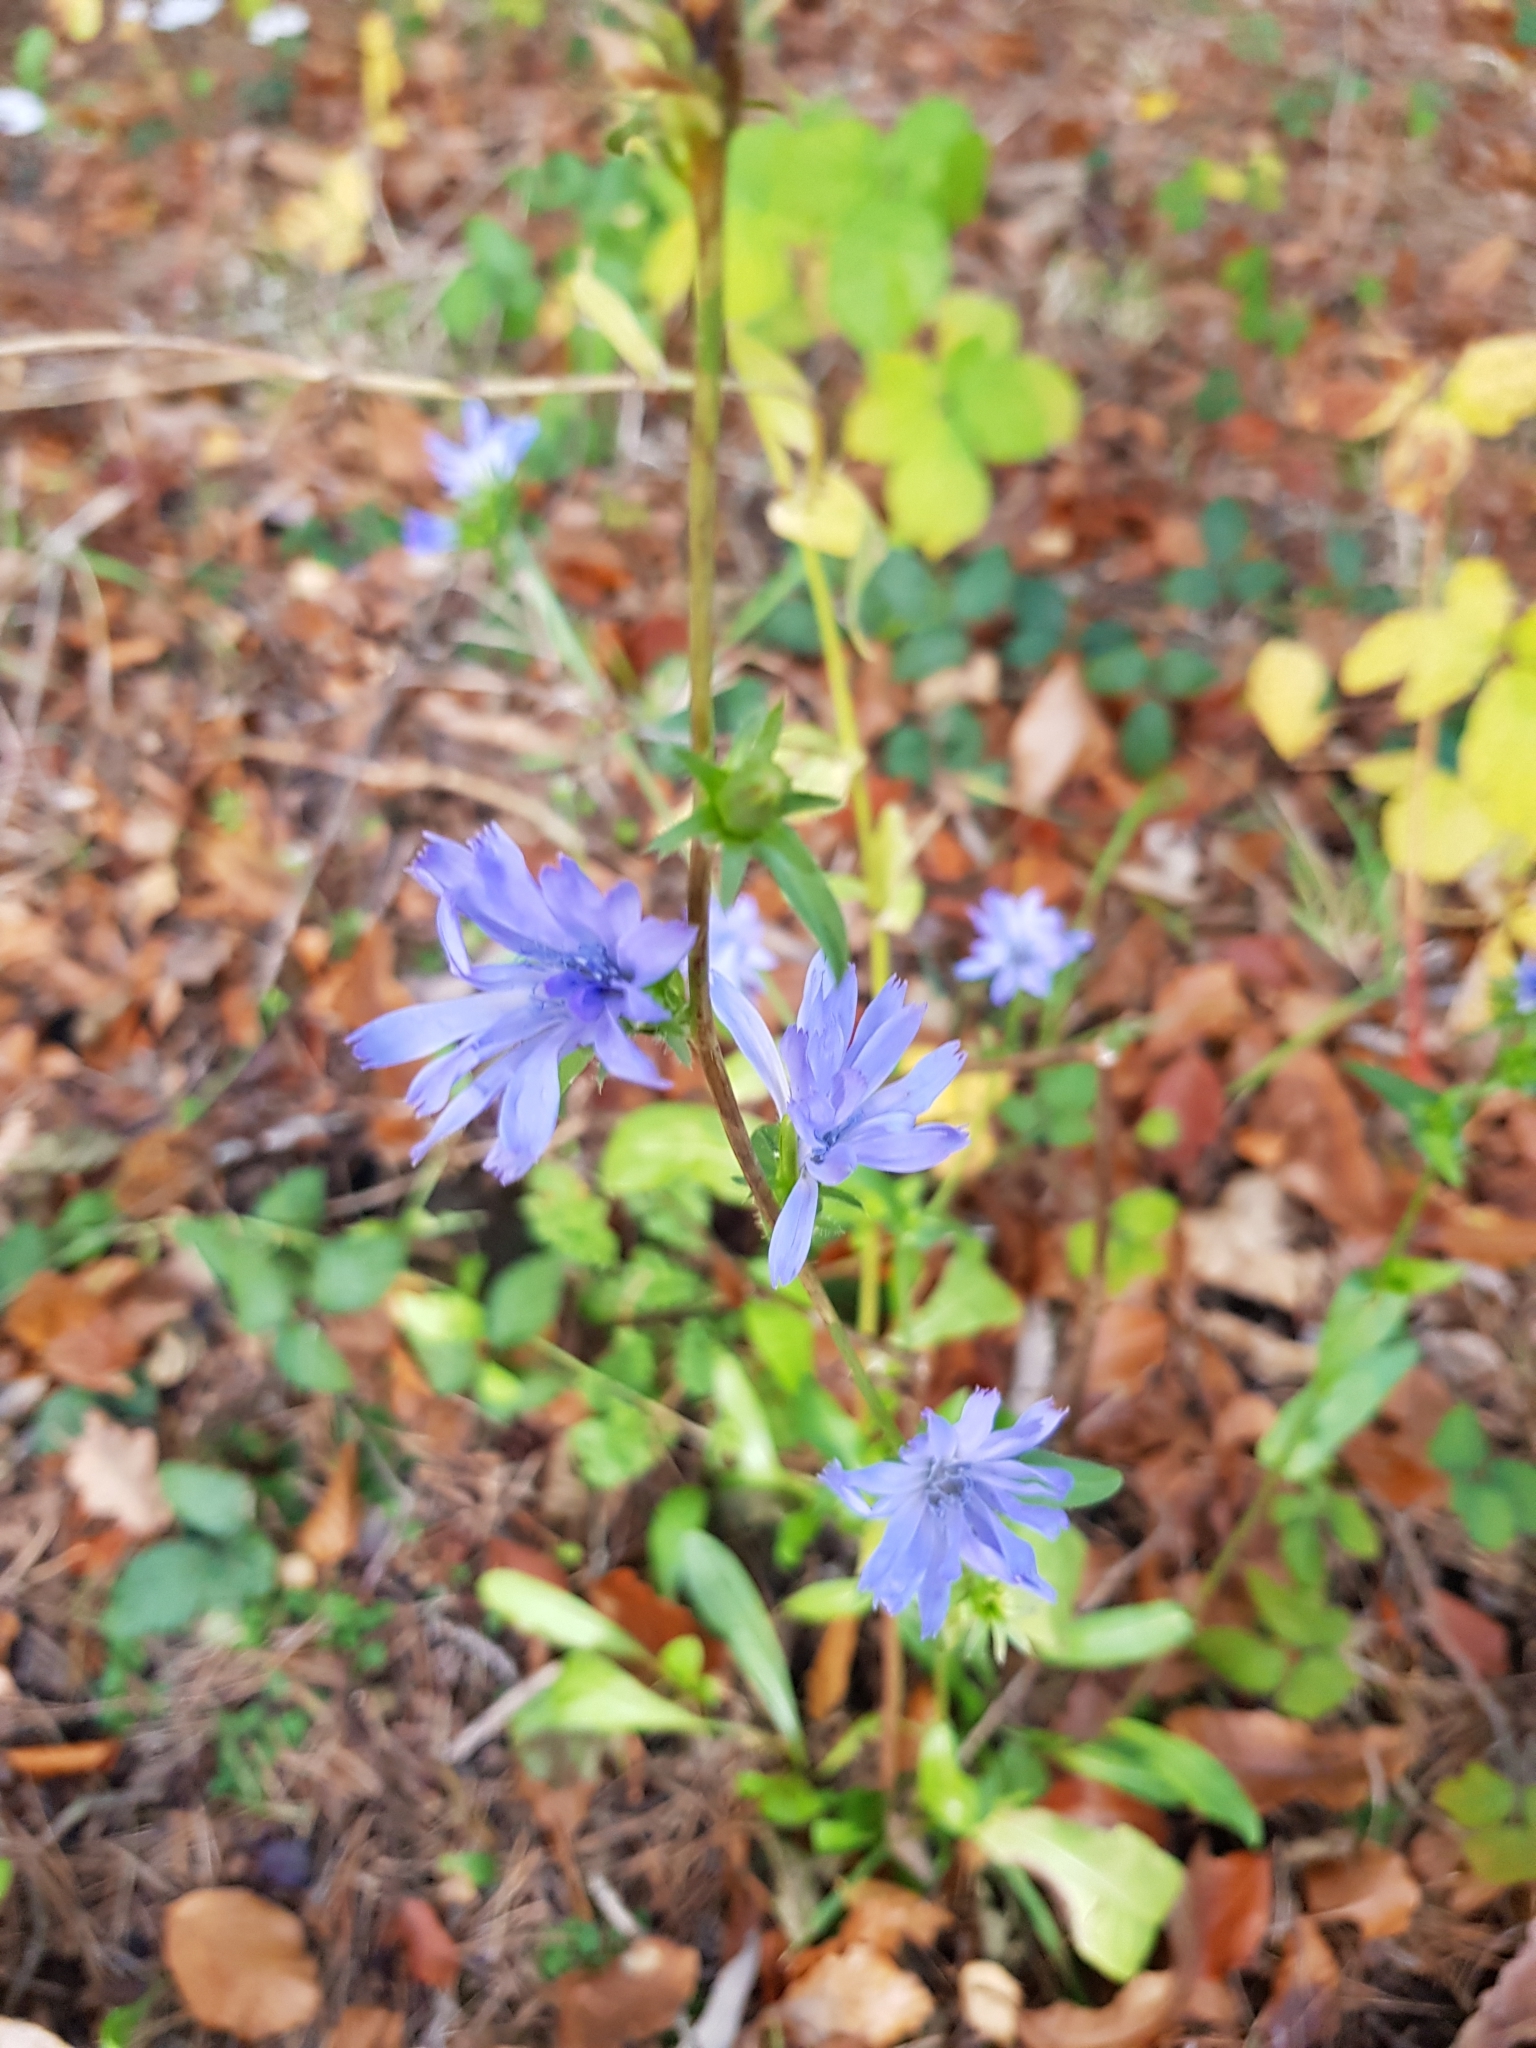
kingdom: Plantae
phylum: Tracheophyta
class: Magnoliopsida
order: Asterales
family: Asteraceae
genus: Cichorium
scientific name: Cichorium intybus
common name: Chicory
